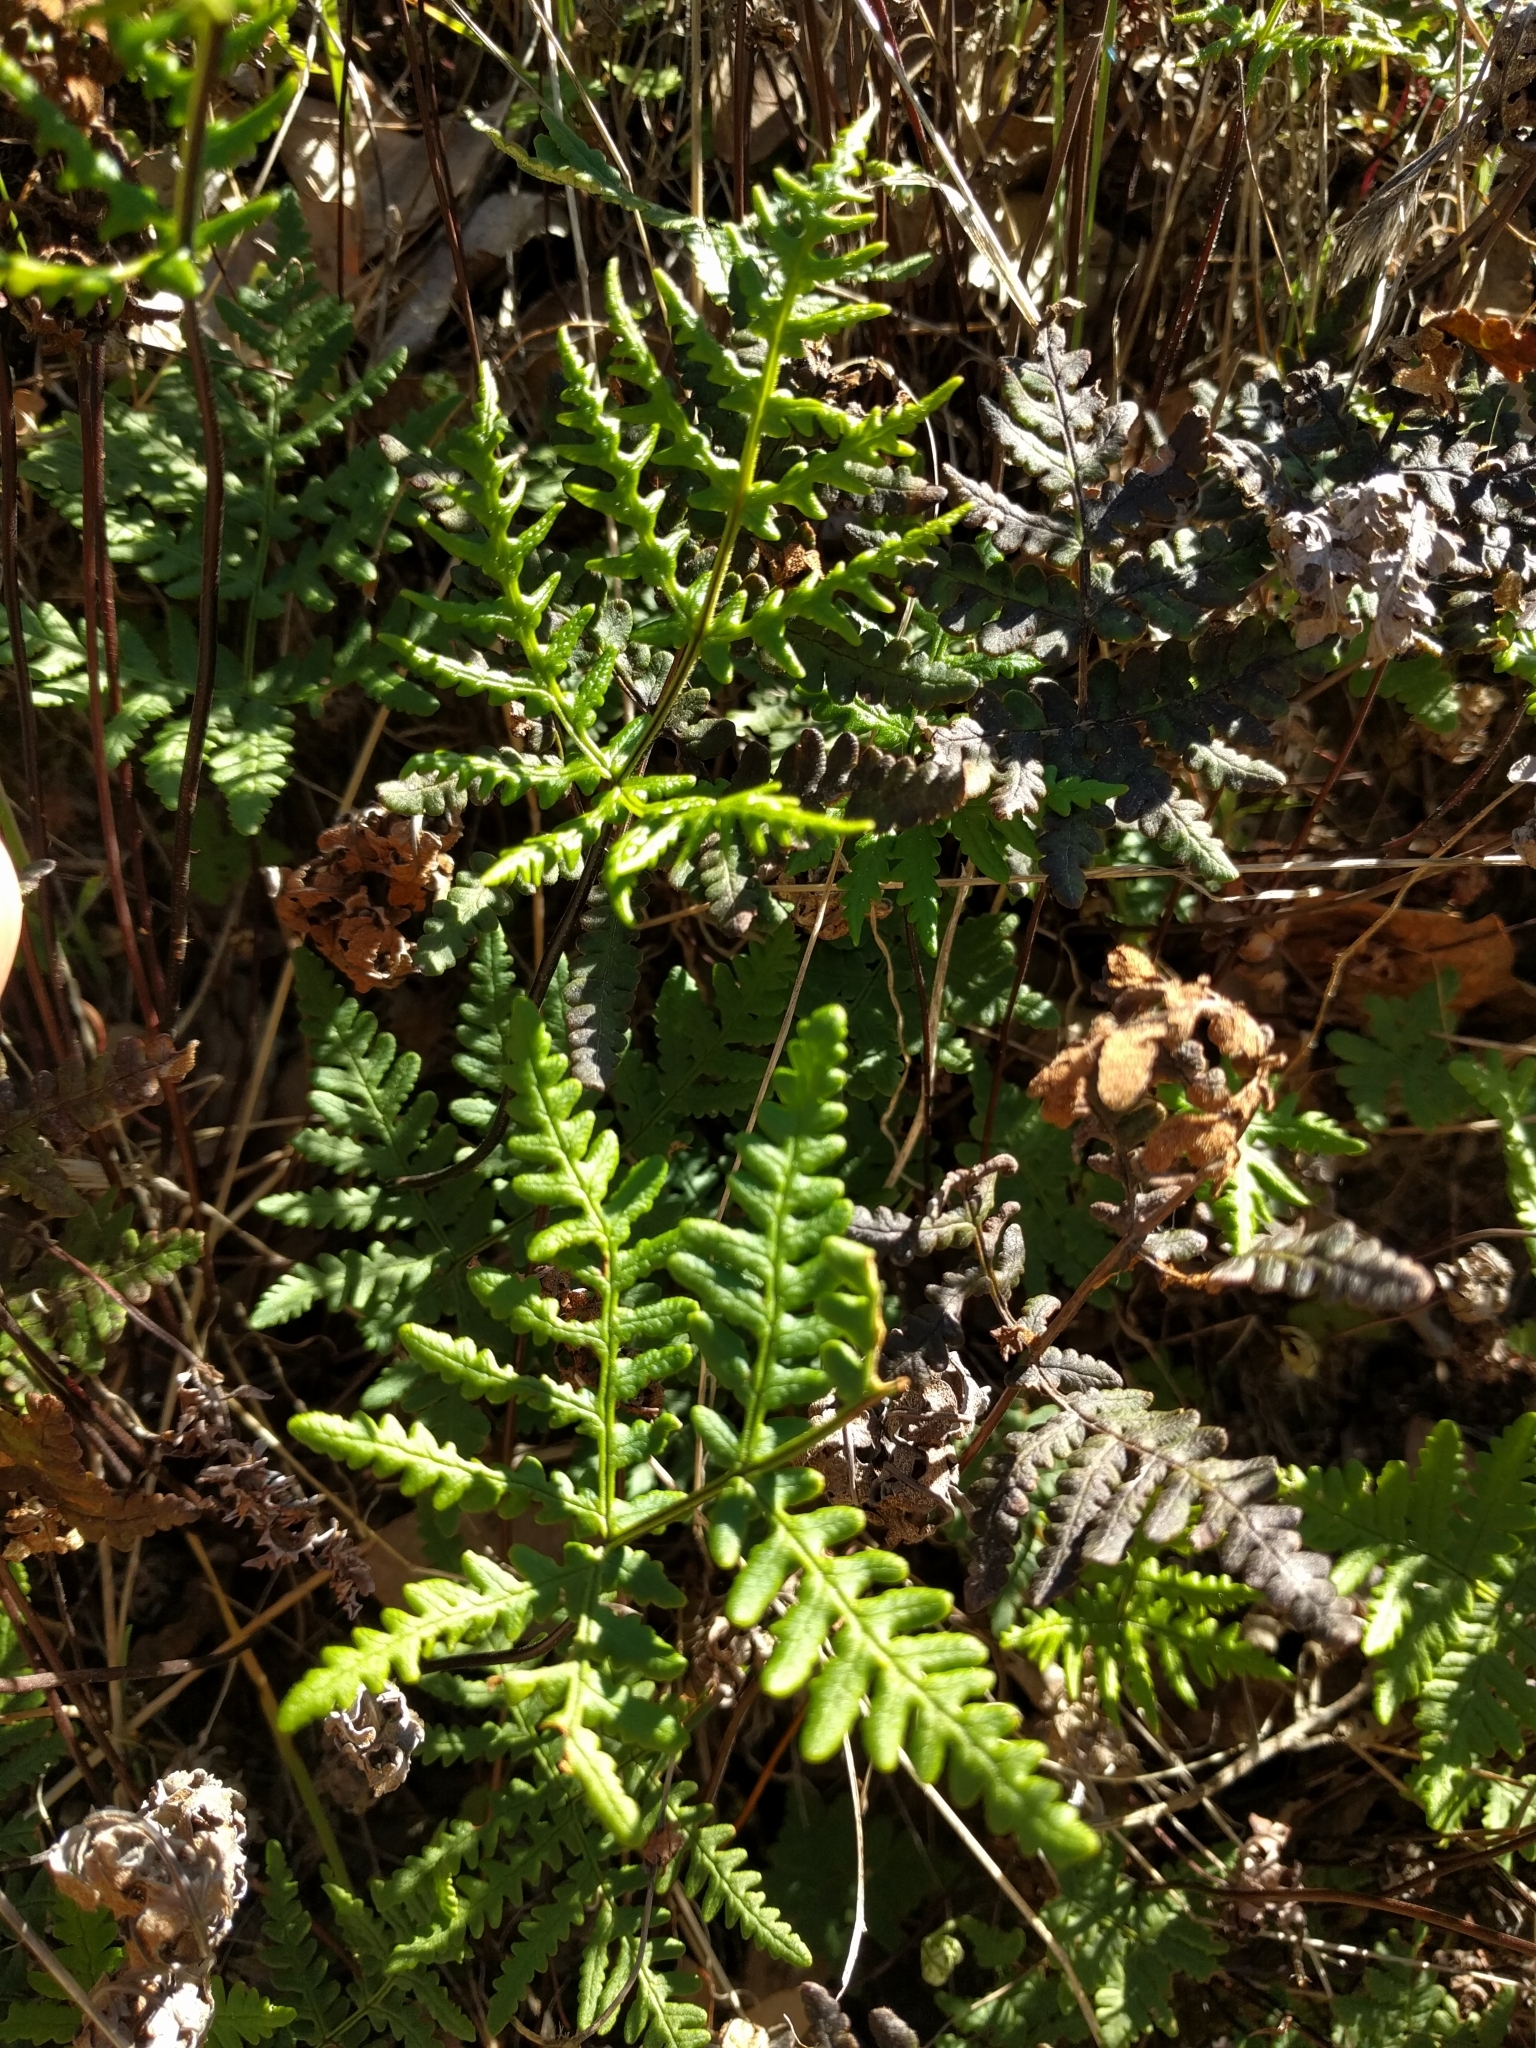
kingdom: Plantae
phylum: Tracheophyta
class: Polypodiopsida
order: Polypodiales
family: Pteridaceae
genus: Pentagramma
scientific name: Pentagramma triangularis
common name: Gold fern
